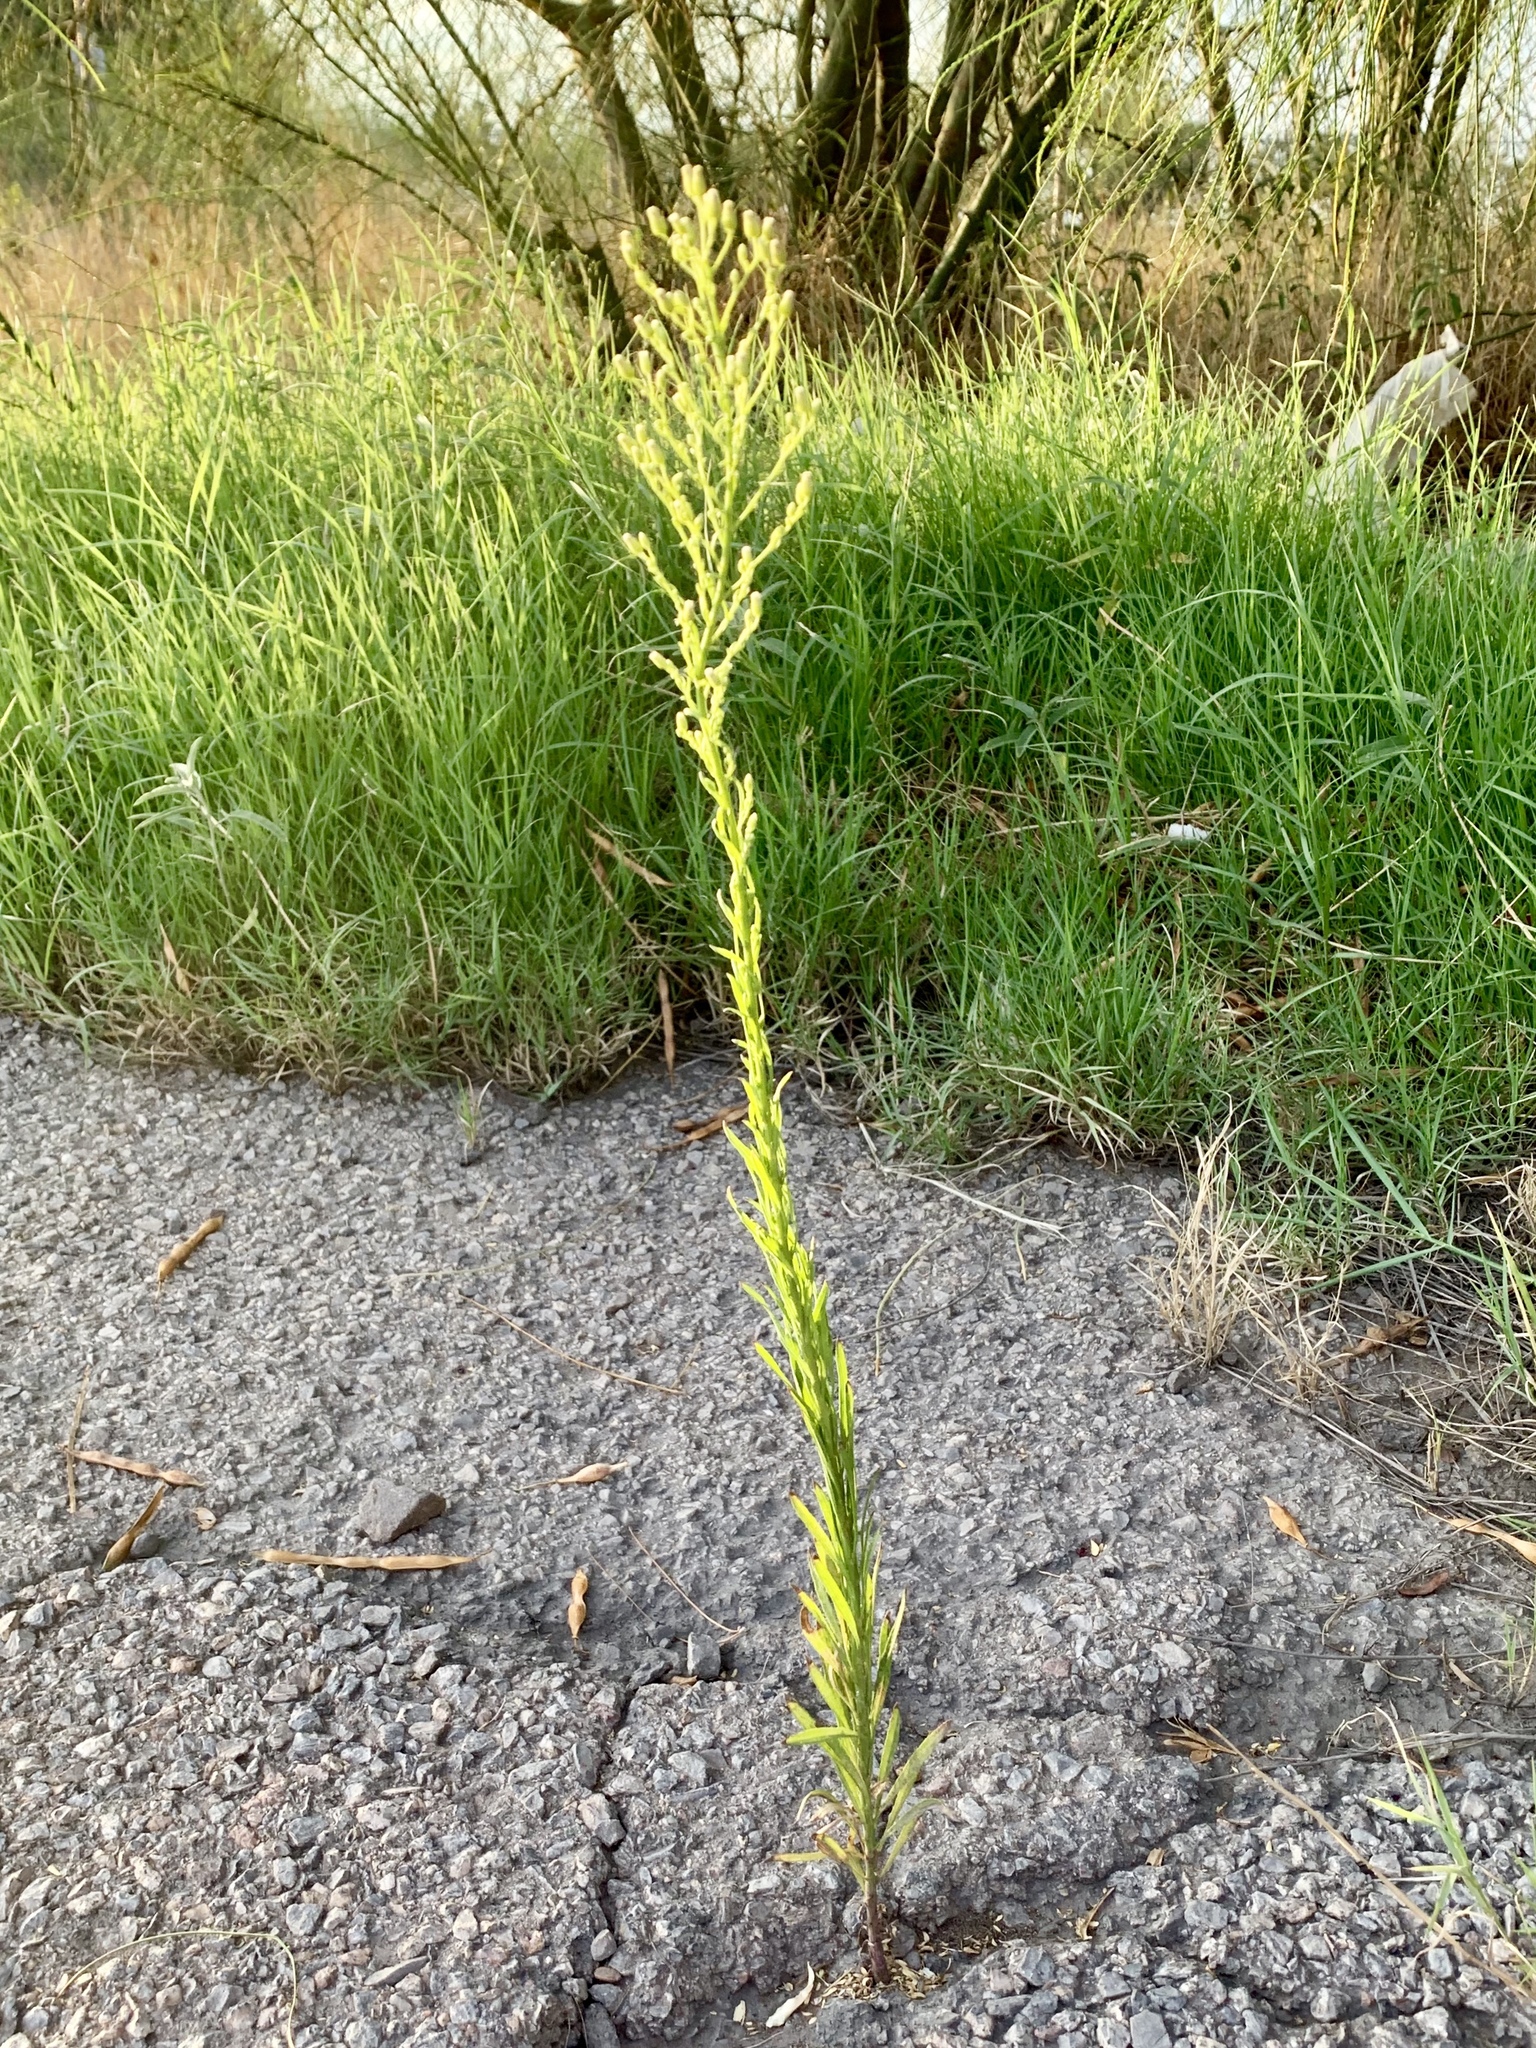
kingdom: Plantae
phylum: Tracheophyta
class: Magnoliopsida
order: Asterales
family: Asteraceae
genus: Erigeron
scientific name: Erigeron canadensis
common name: Canadian fleabane
